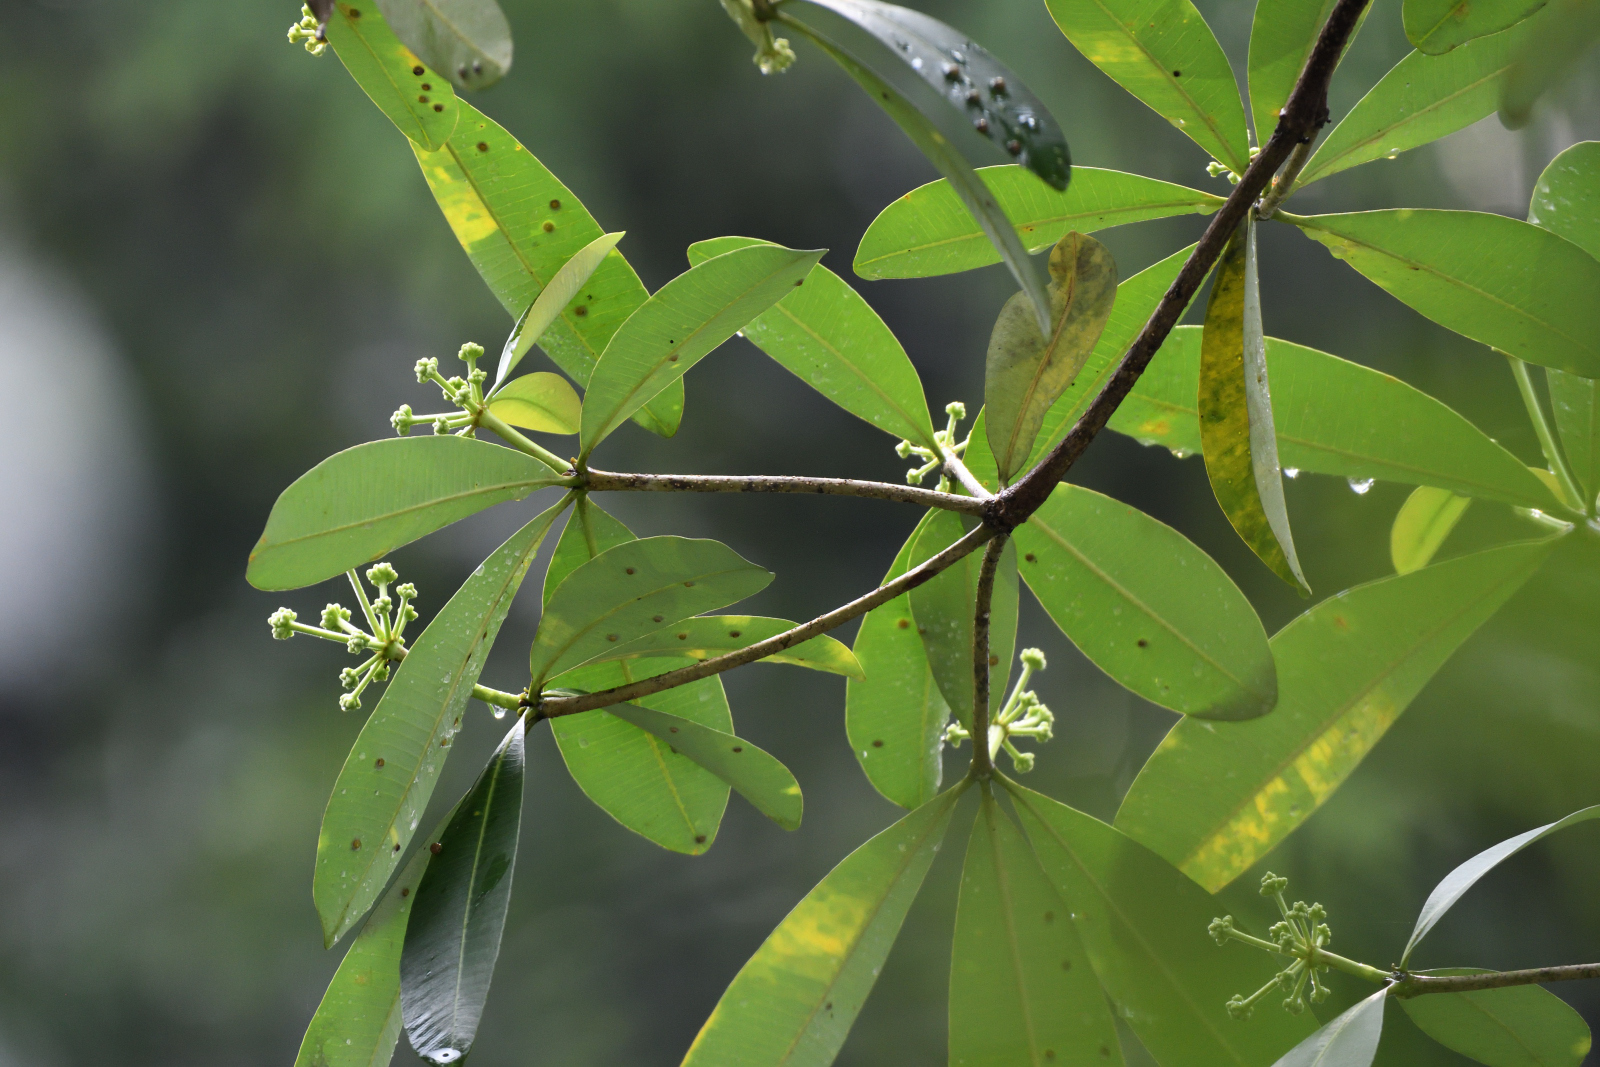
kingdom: Plantae
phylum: Tracheophyta
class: Magnoliopsida
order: Gentianales
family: Apocynaceae
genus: Alstonia
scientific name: Alstonia scholaris
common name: White cheesewood
